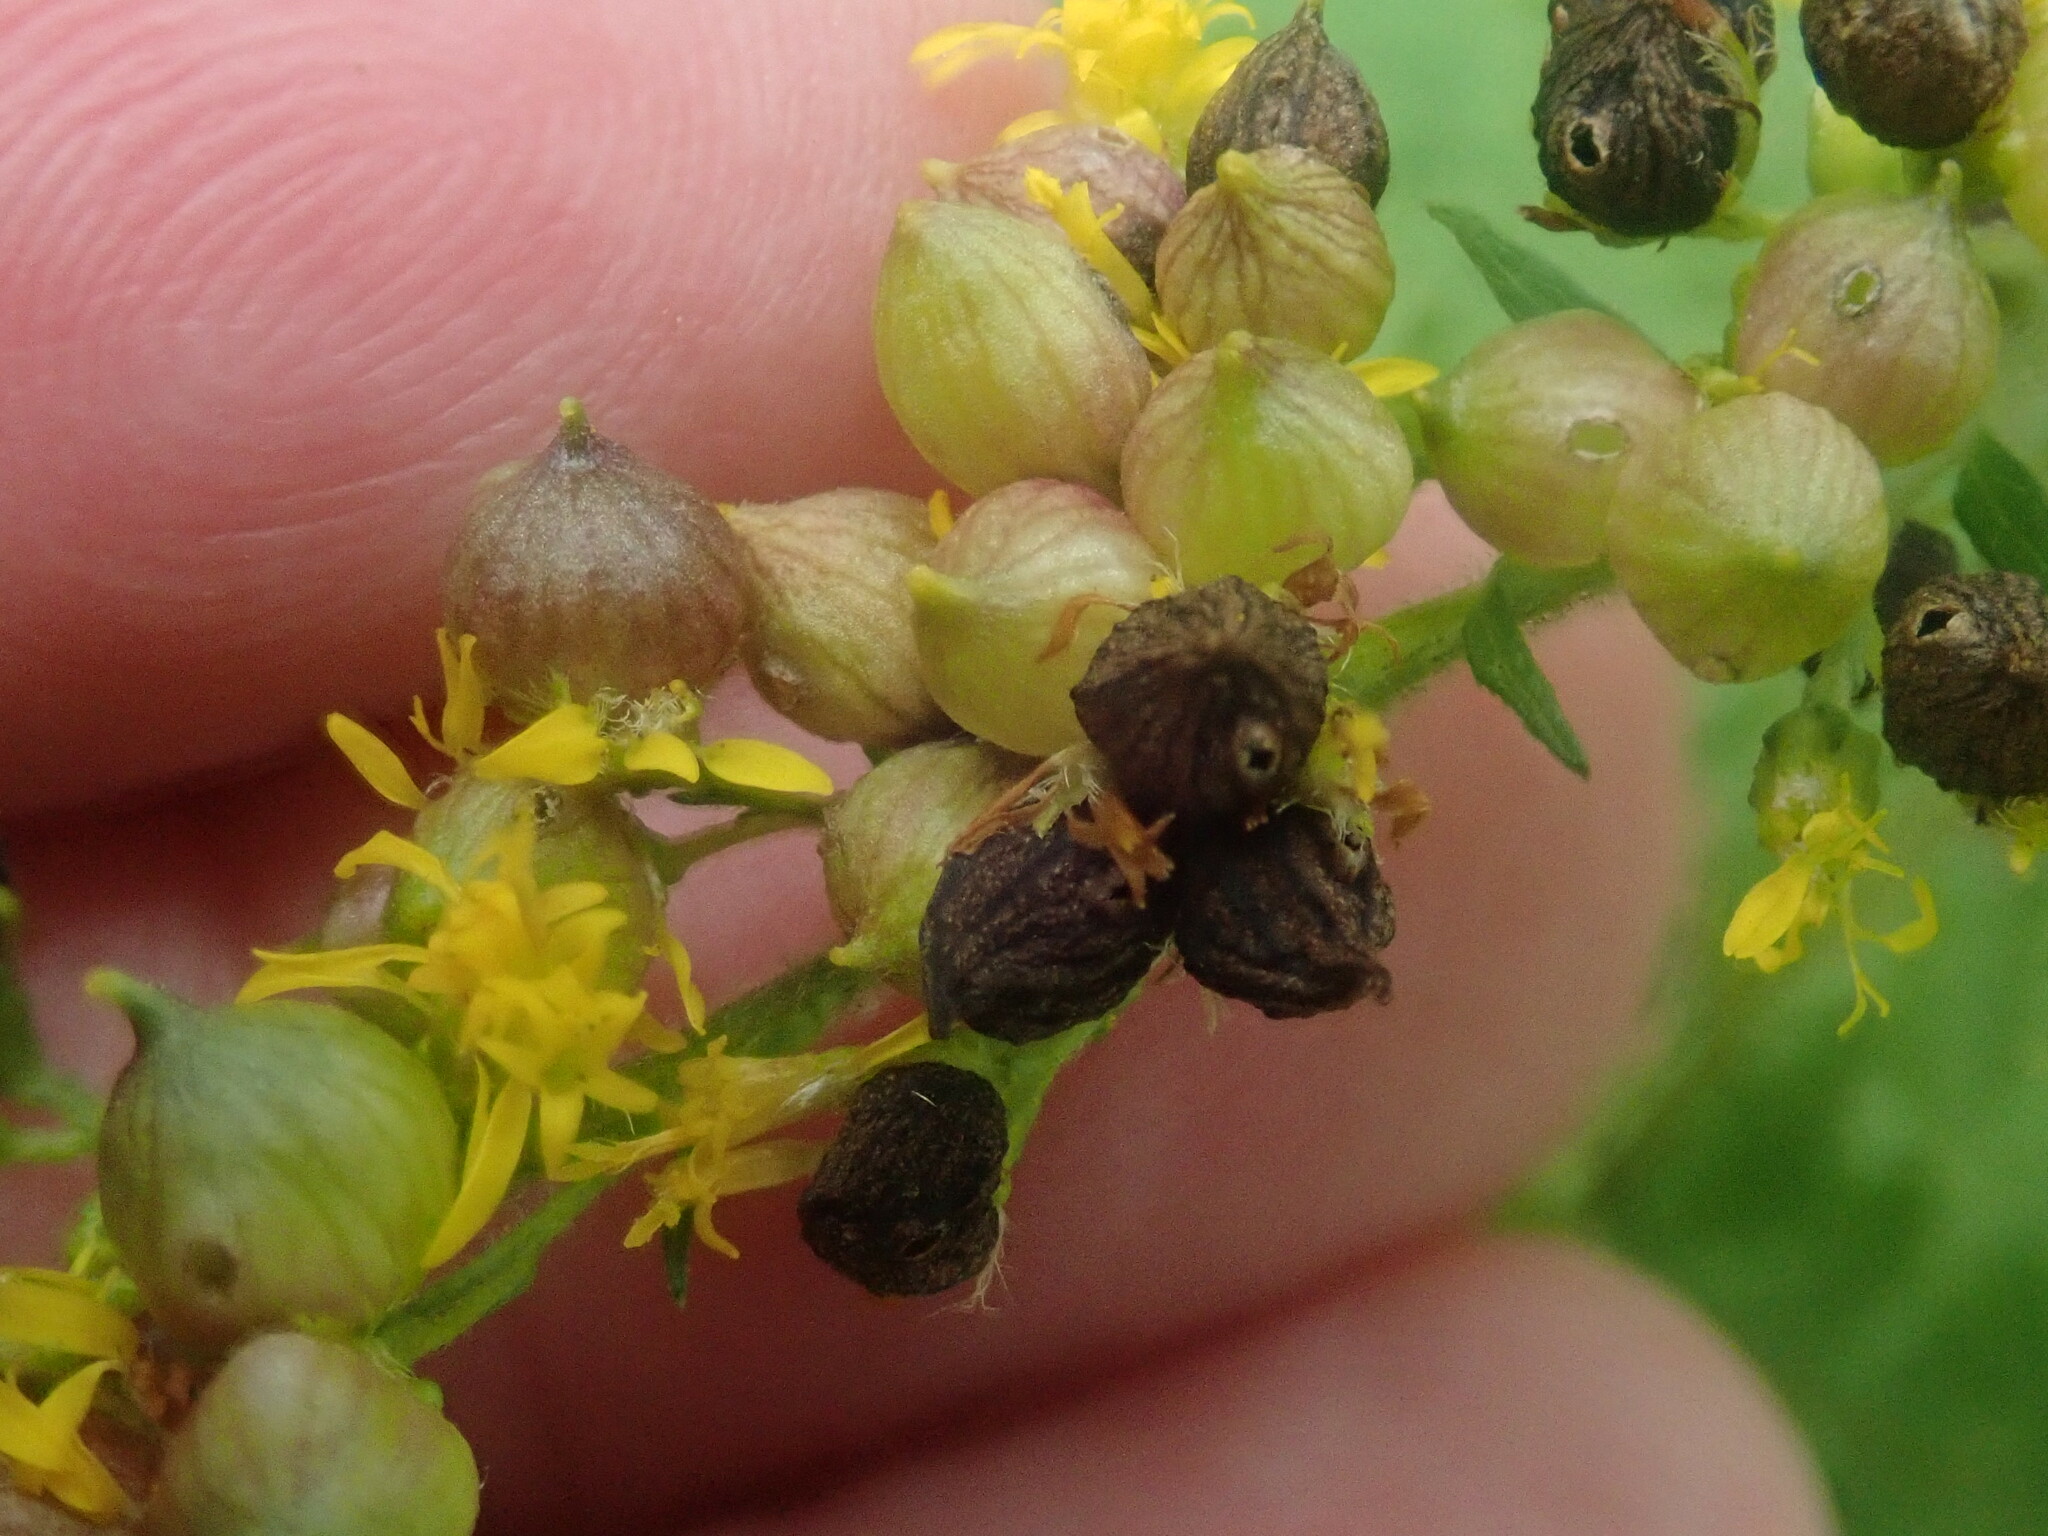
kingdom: Animalia
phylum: Arthropoda
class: Insecta
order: Diptera
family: Cecidomyiidae
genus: Schizomyia
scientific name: Schizomyia racemicola
